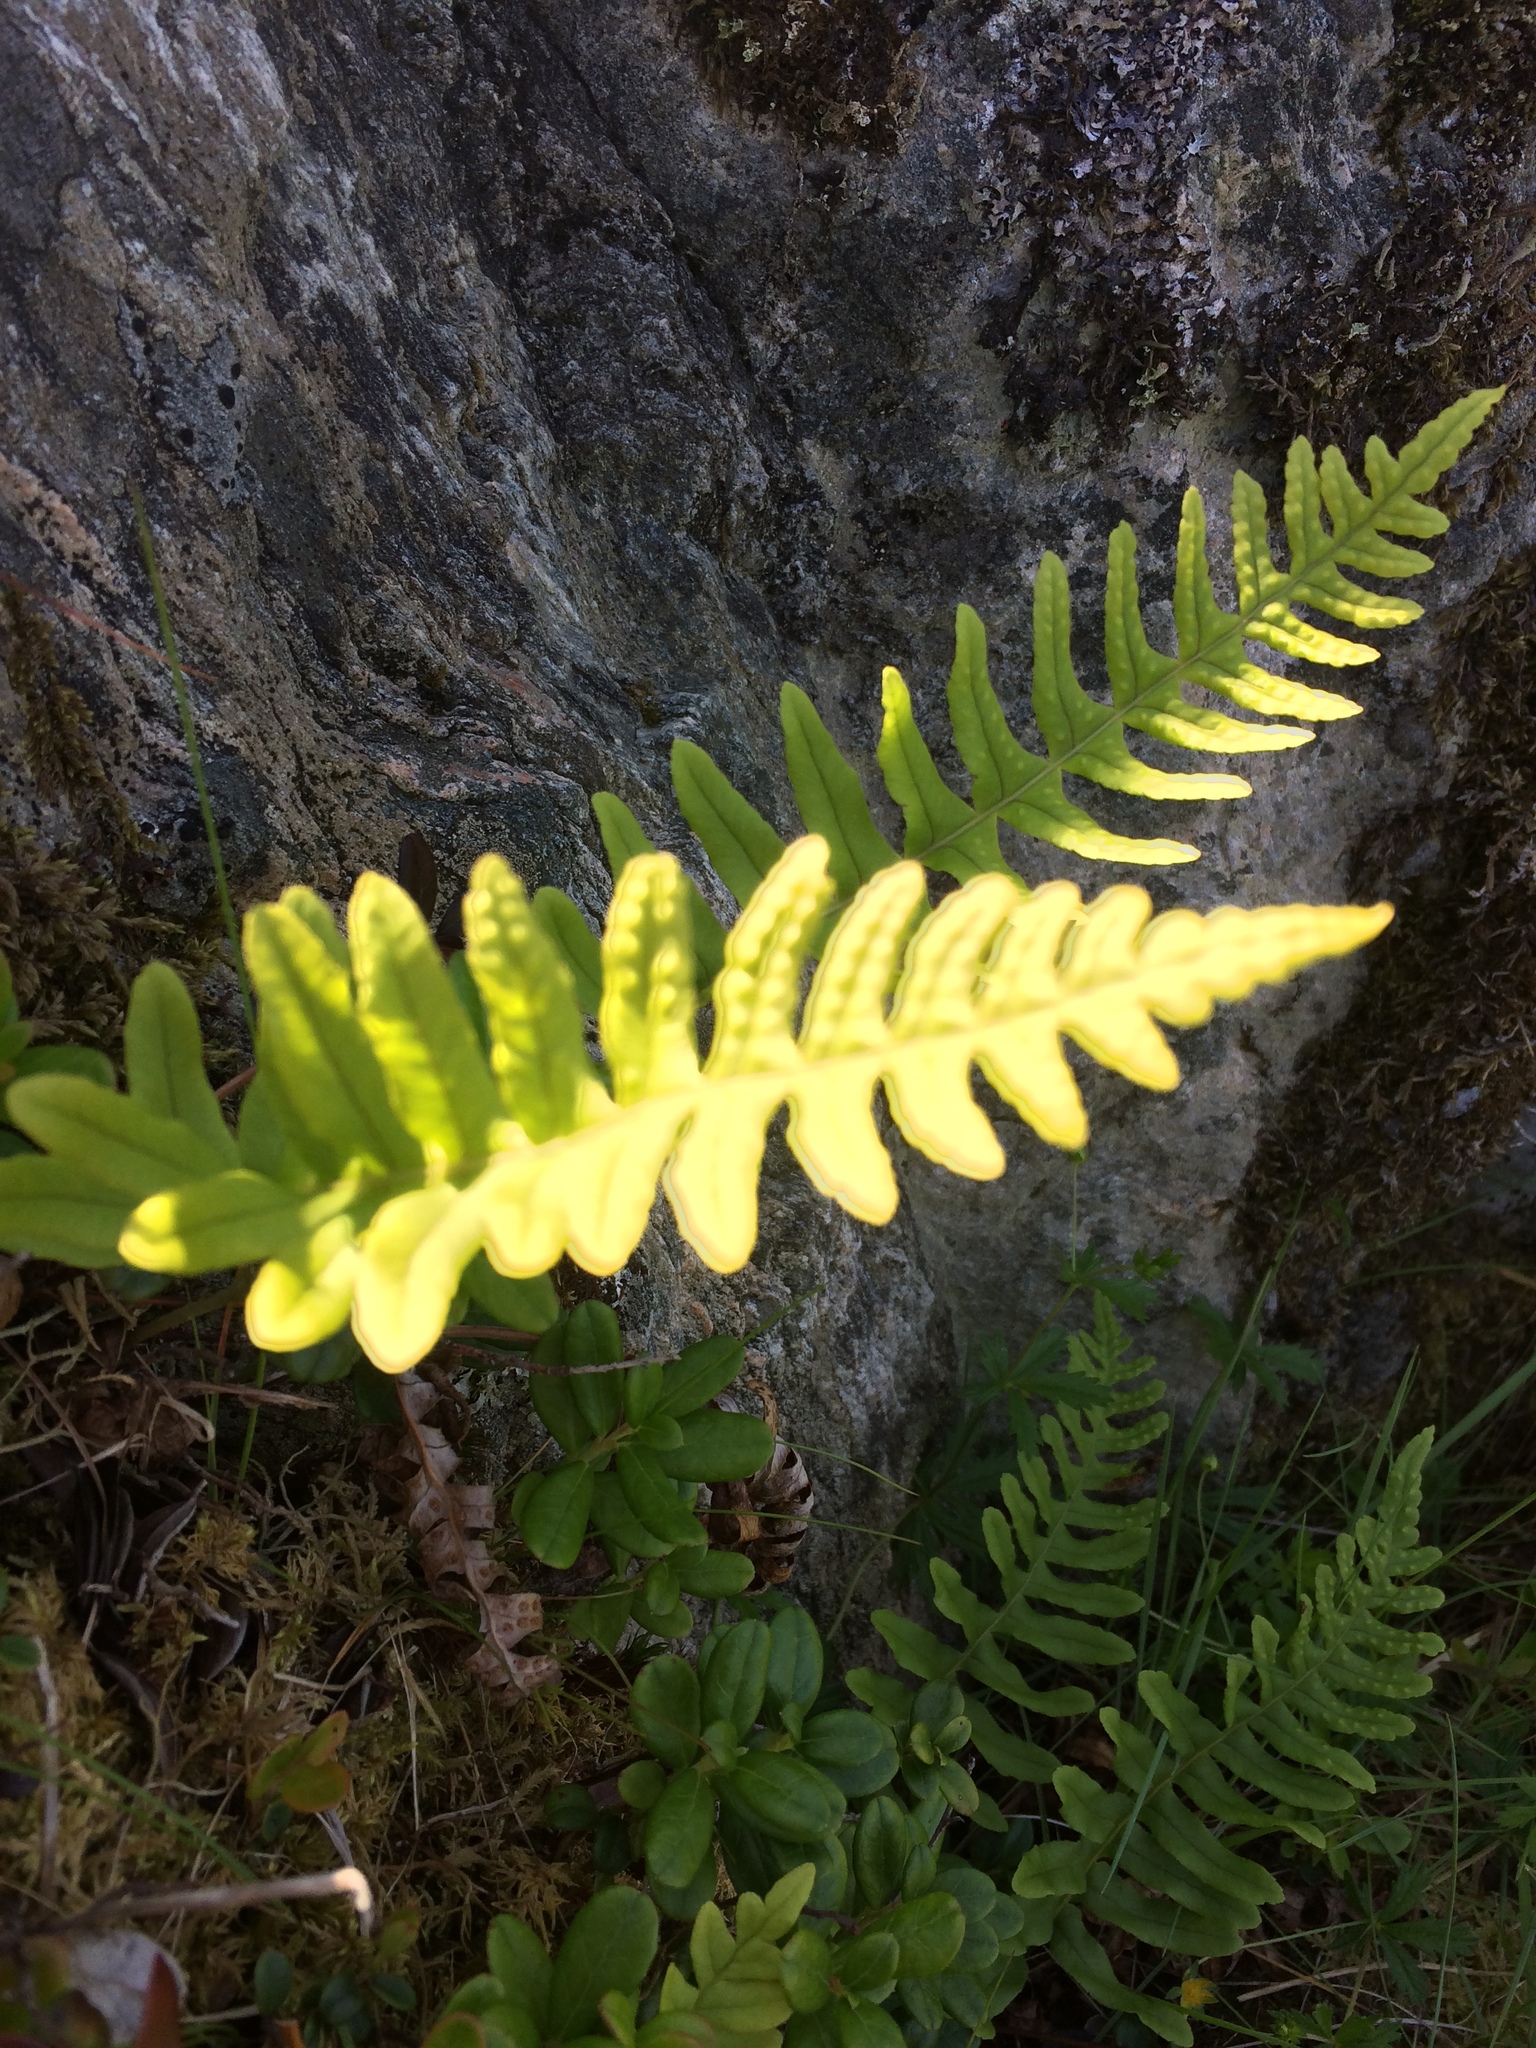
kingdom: Plantae
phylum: Tracheophyta
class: Polypodiopsida
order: Polypodiales
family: Polypodiaceae
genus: Polypodium
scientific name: Polypodium vulgare
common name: Common polypody
